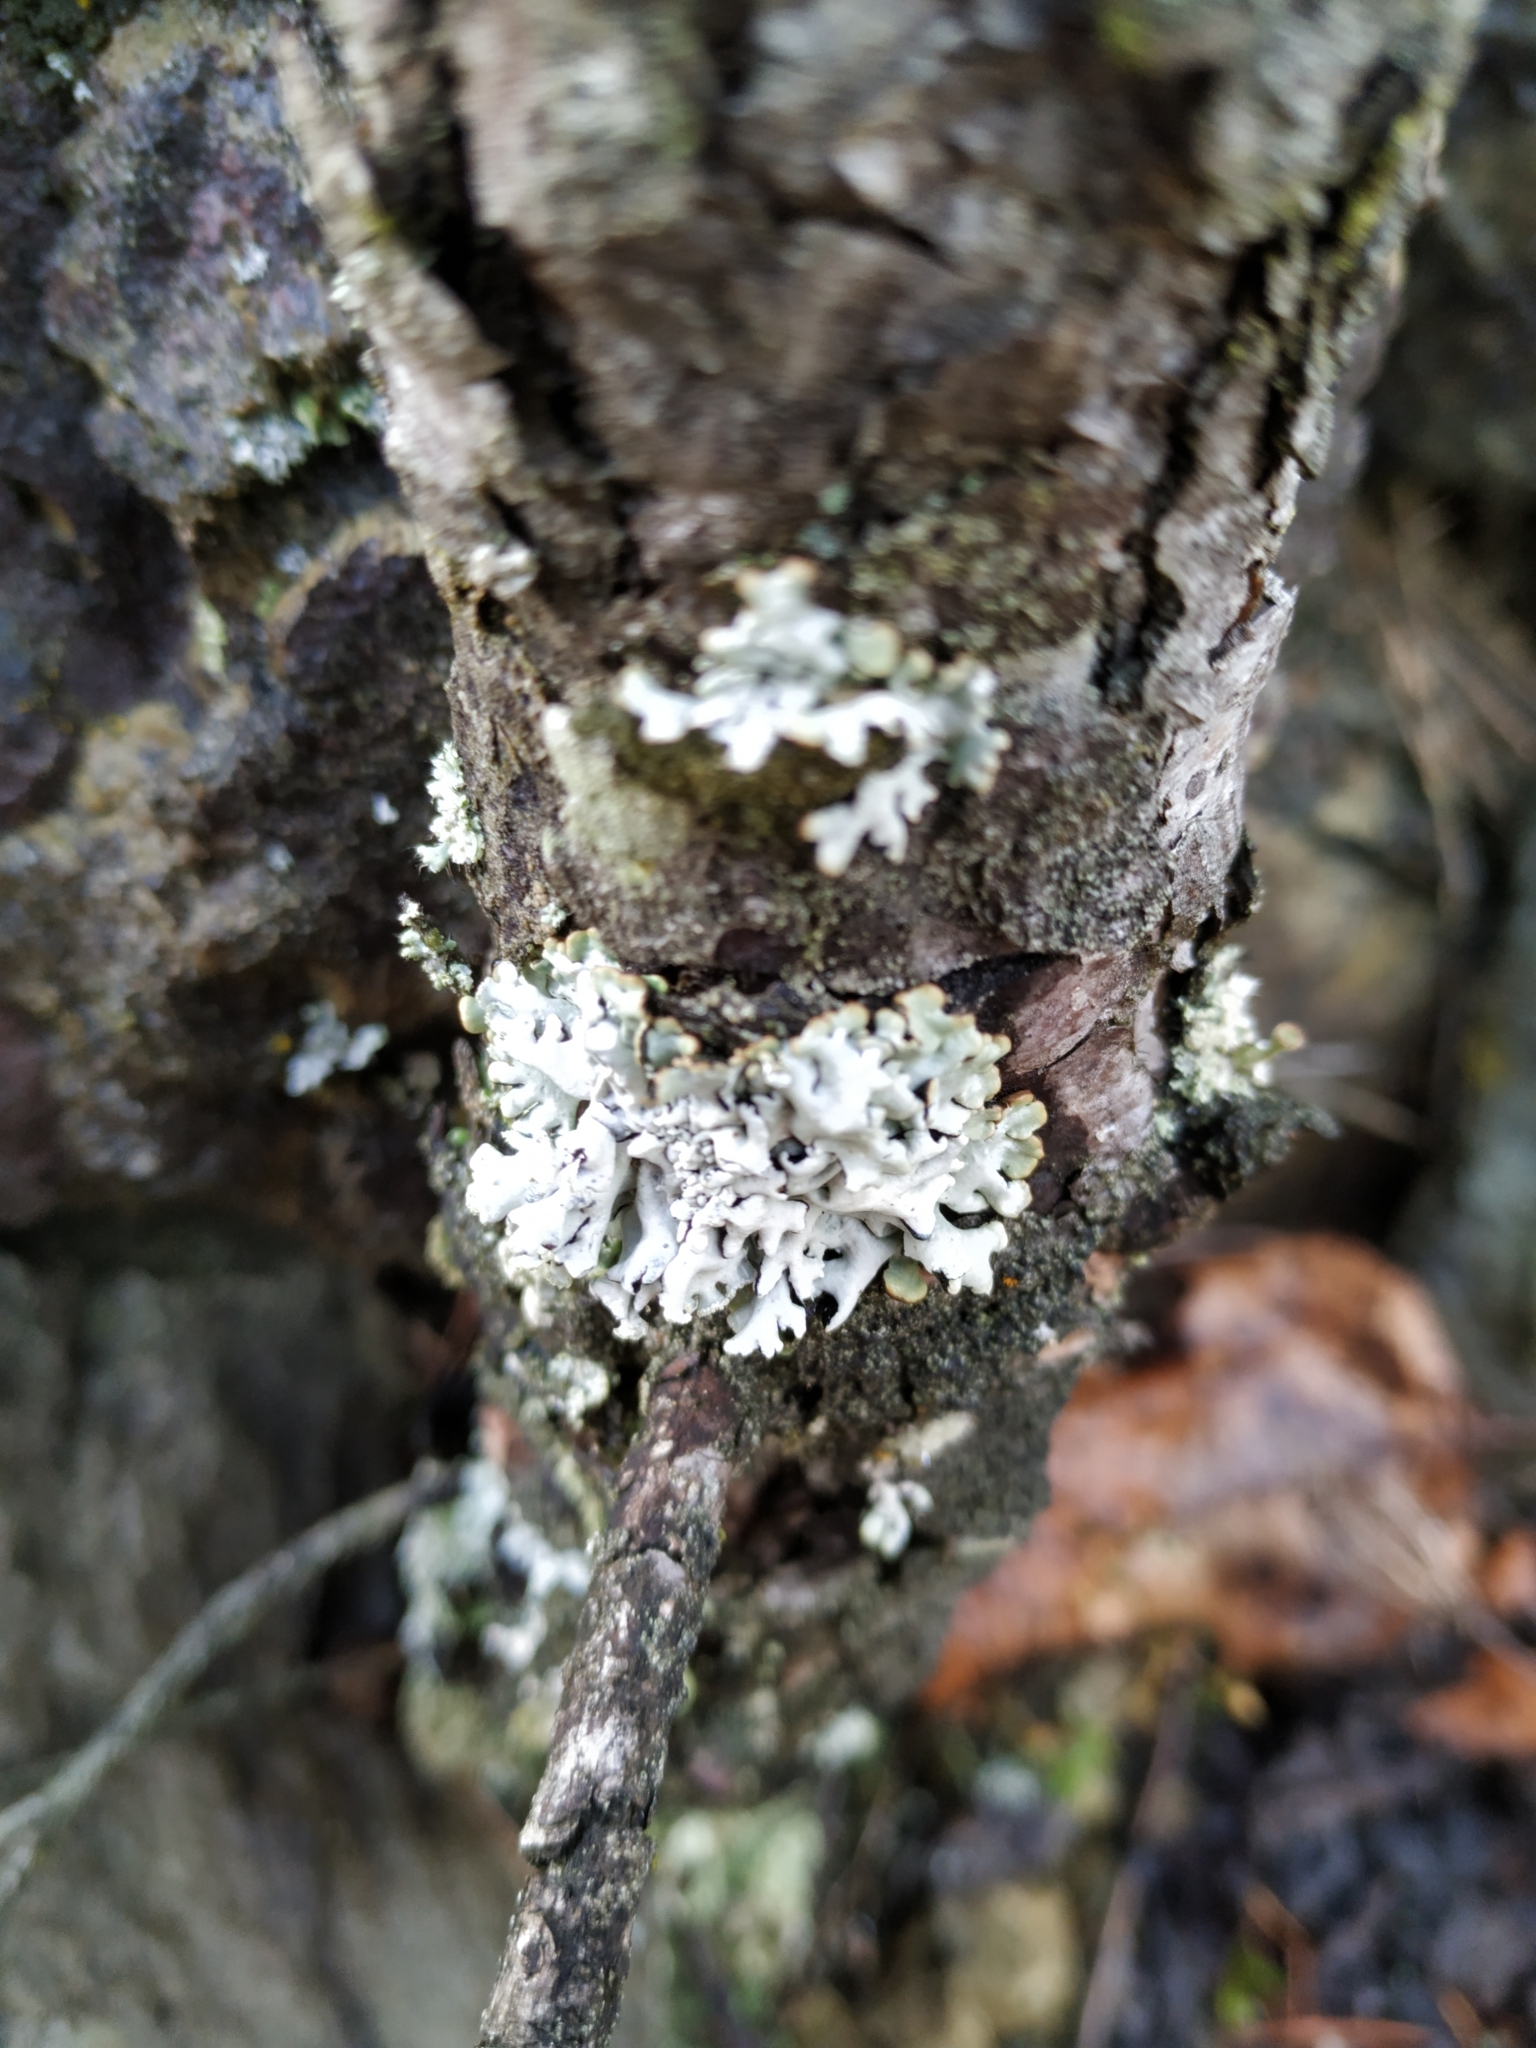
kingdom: Fungi
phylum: Ascomycota
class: Lecanoromycetes
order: Lecanorales
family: Parmeliaceae
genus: Hypogymnia
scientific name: Hypogymnia physodes
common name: Dark crottle
